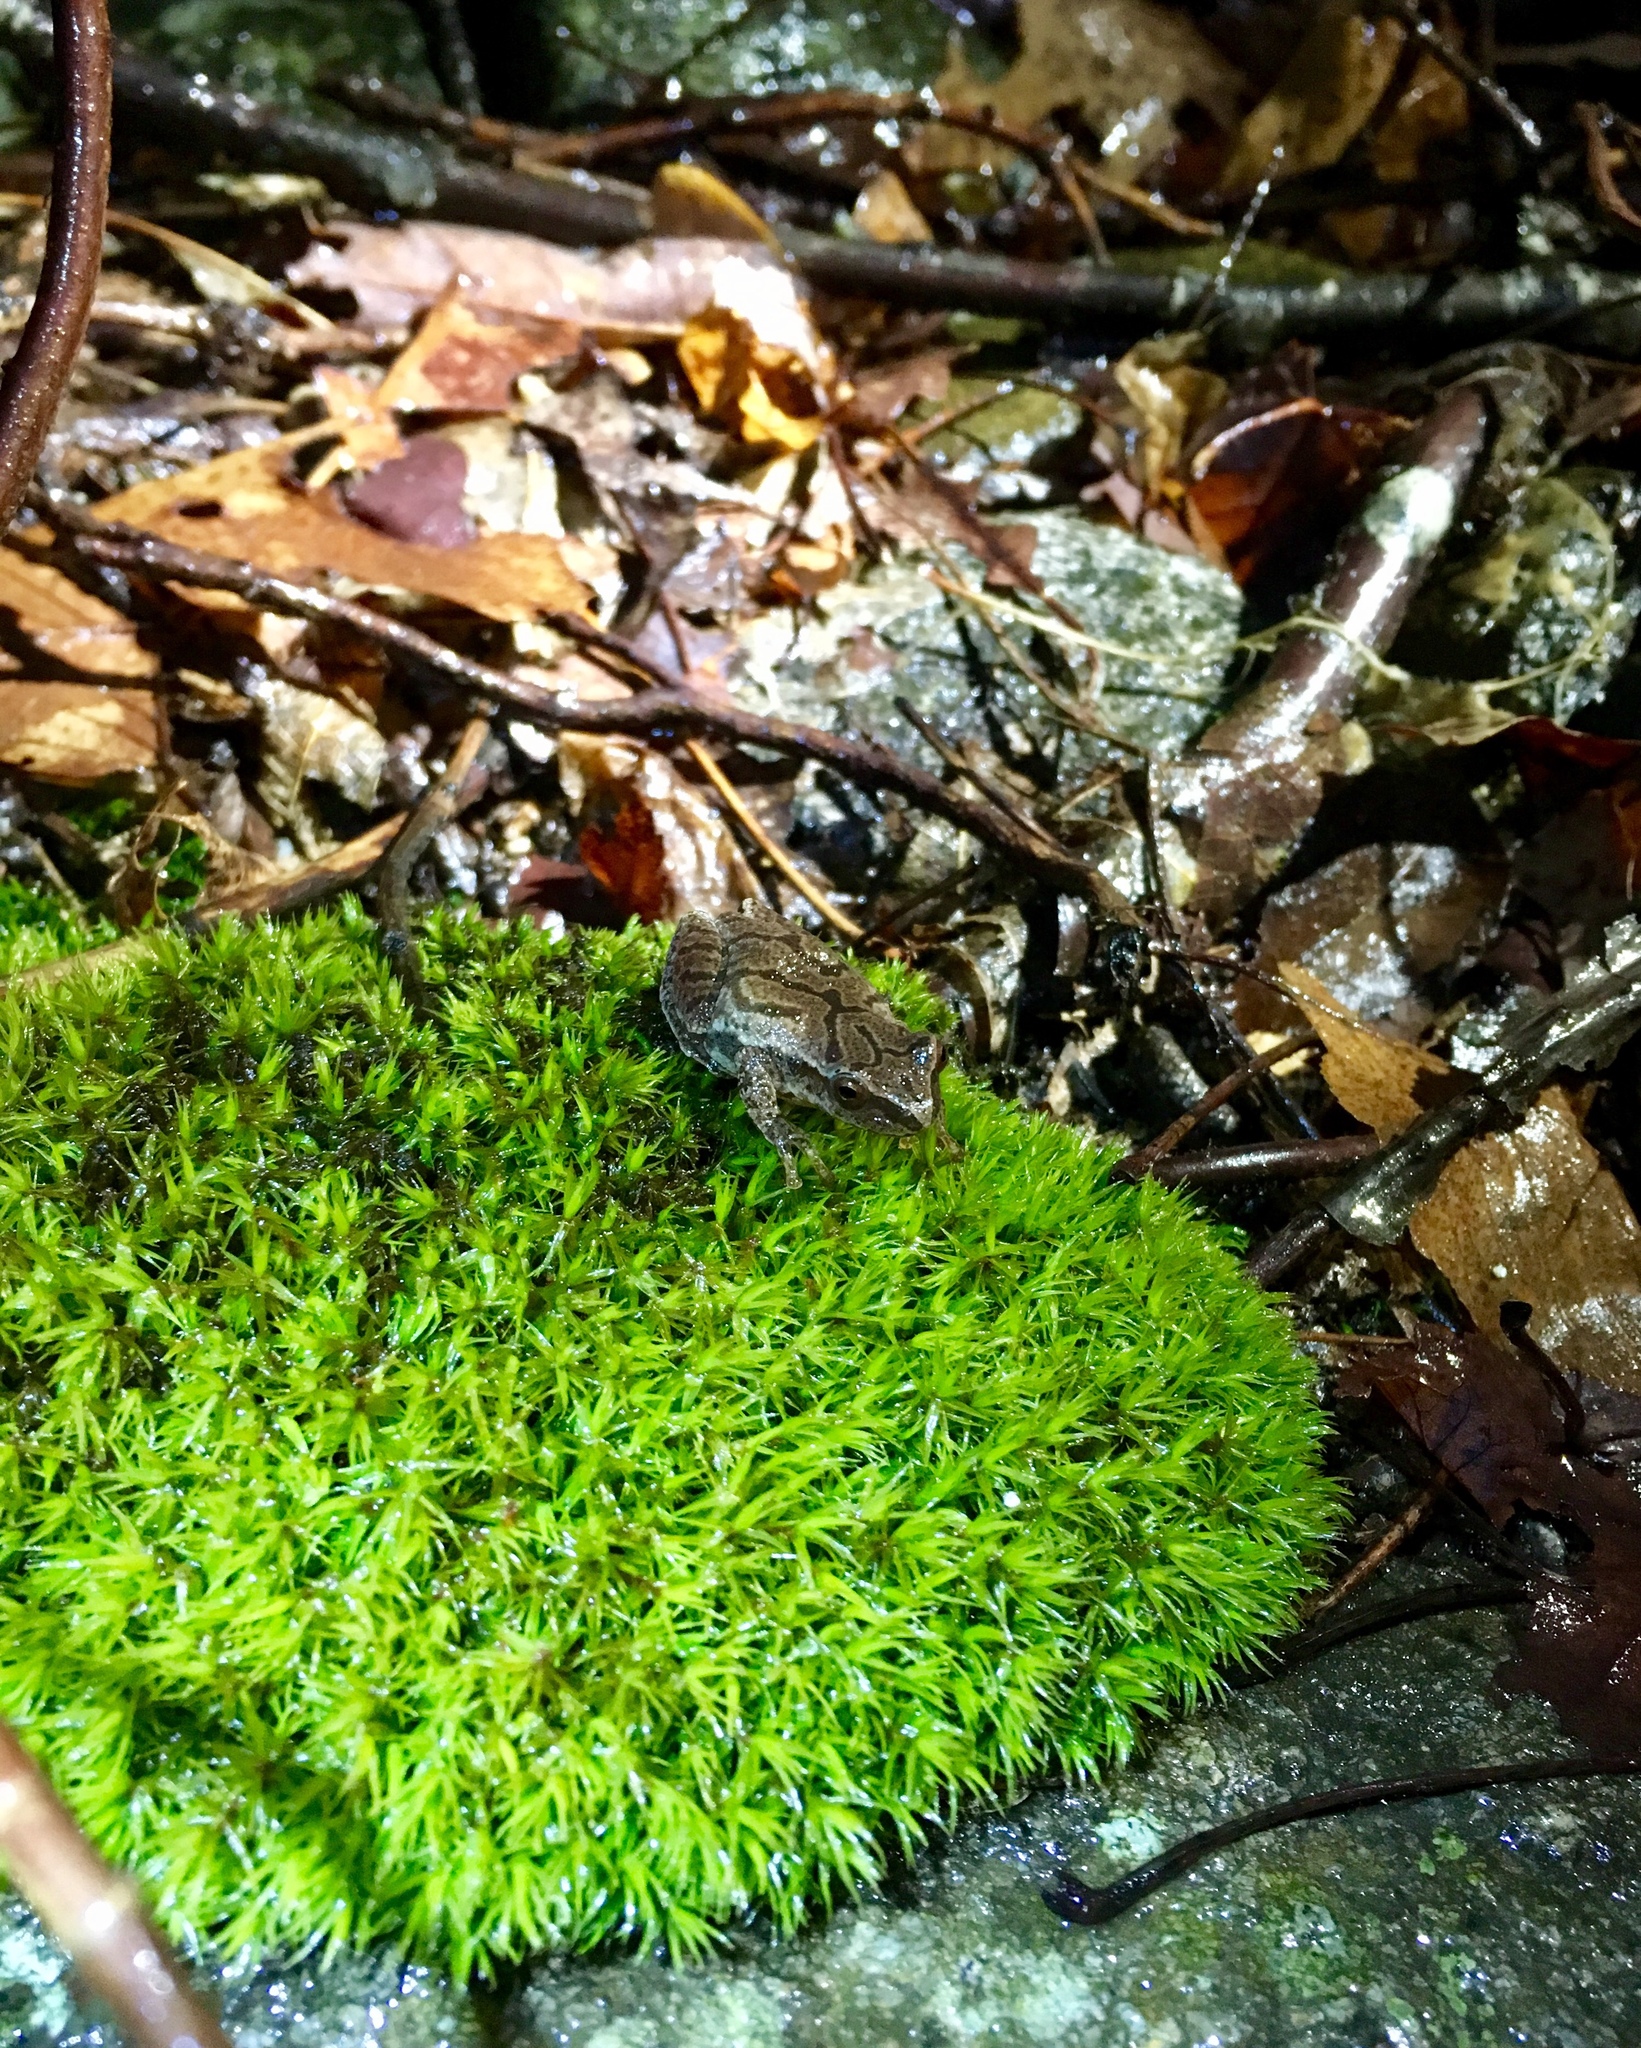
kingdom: Animalia
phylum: Chordata
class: Amphibia
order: Anura
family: Hylidae
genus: Pseudacris
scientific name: Pseudacris crucifer
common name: Spring peeper
